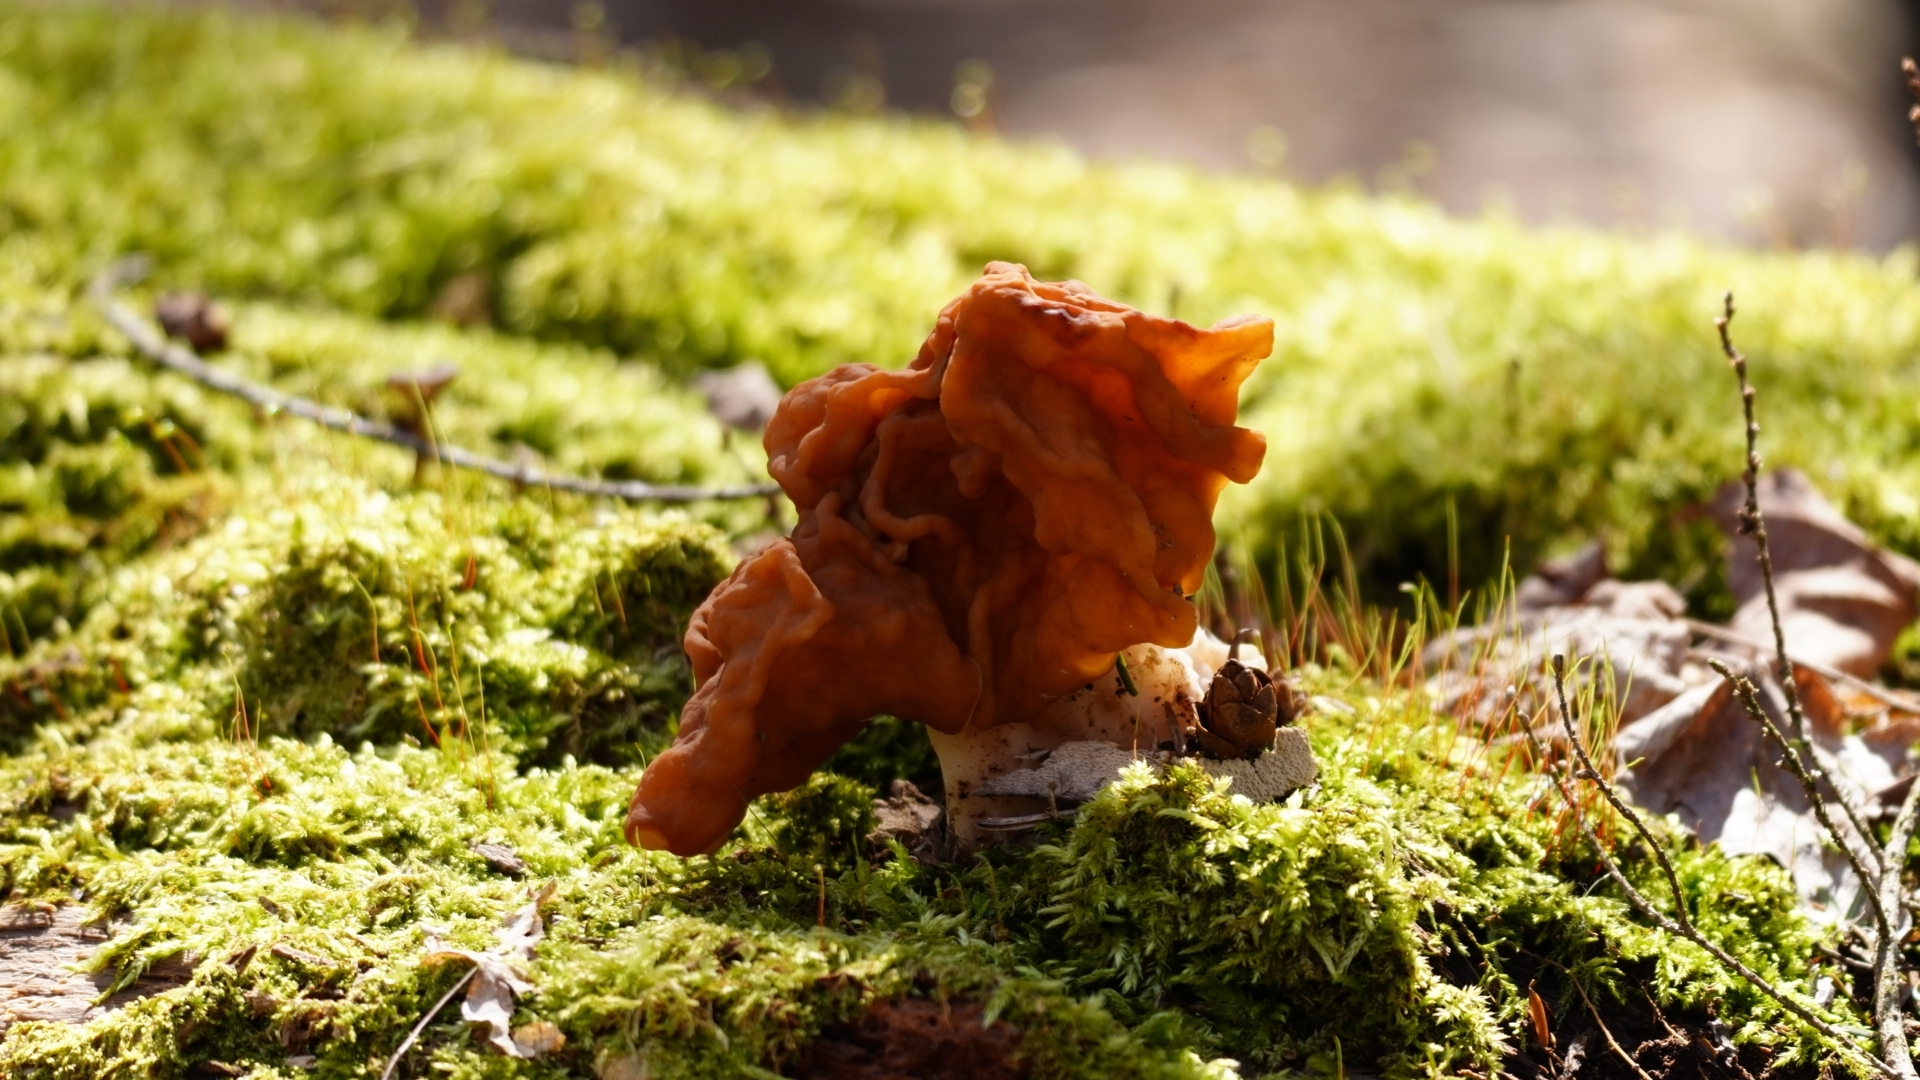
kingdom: Fungi
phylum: Ascomycota
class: Pezizomycetes
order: Pezizales
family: Discinaceae
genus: Gyromitra
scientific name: Gyromitra korfii
